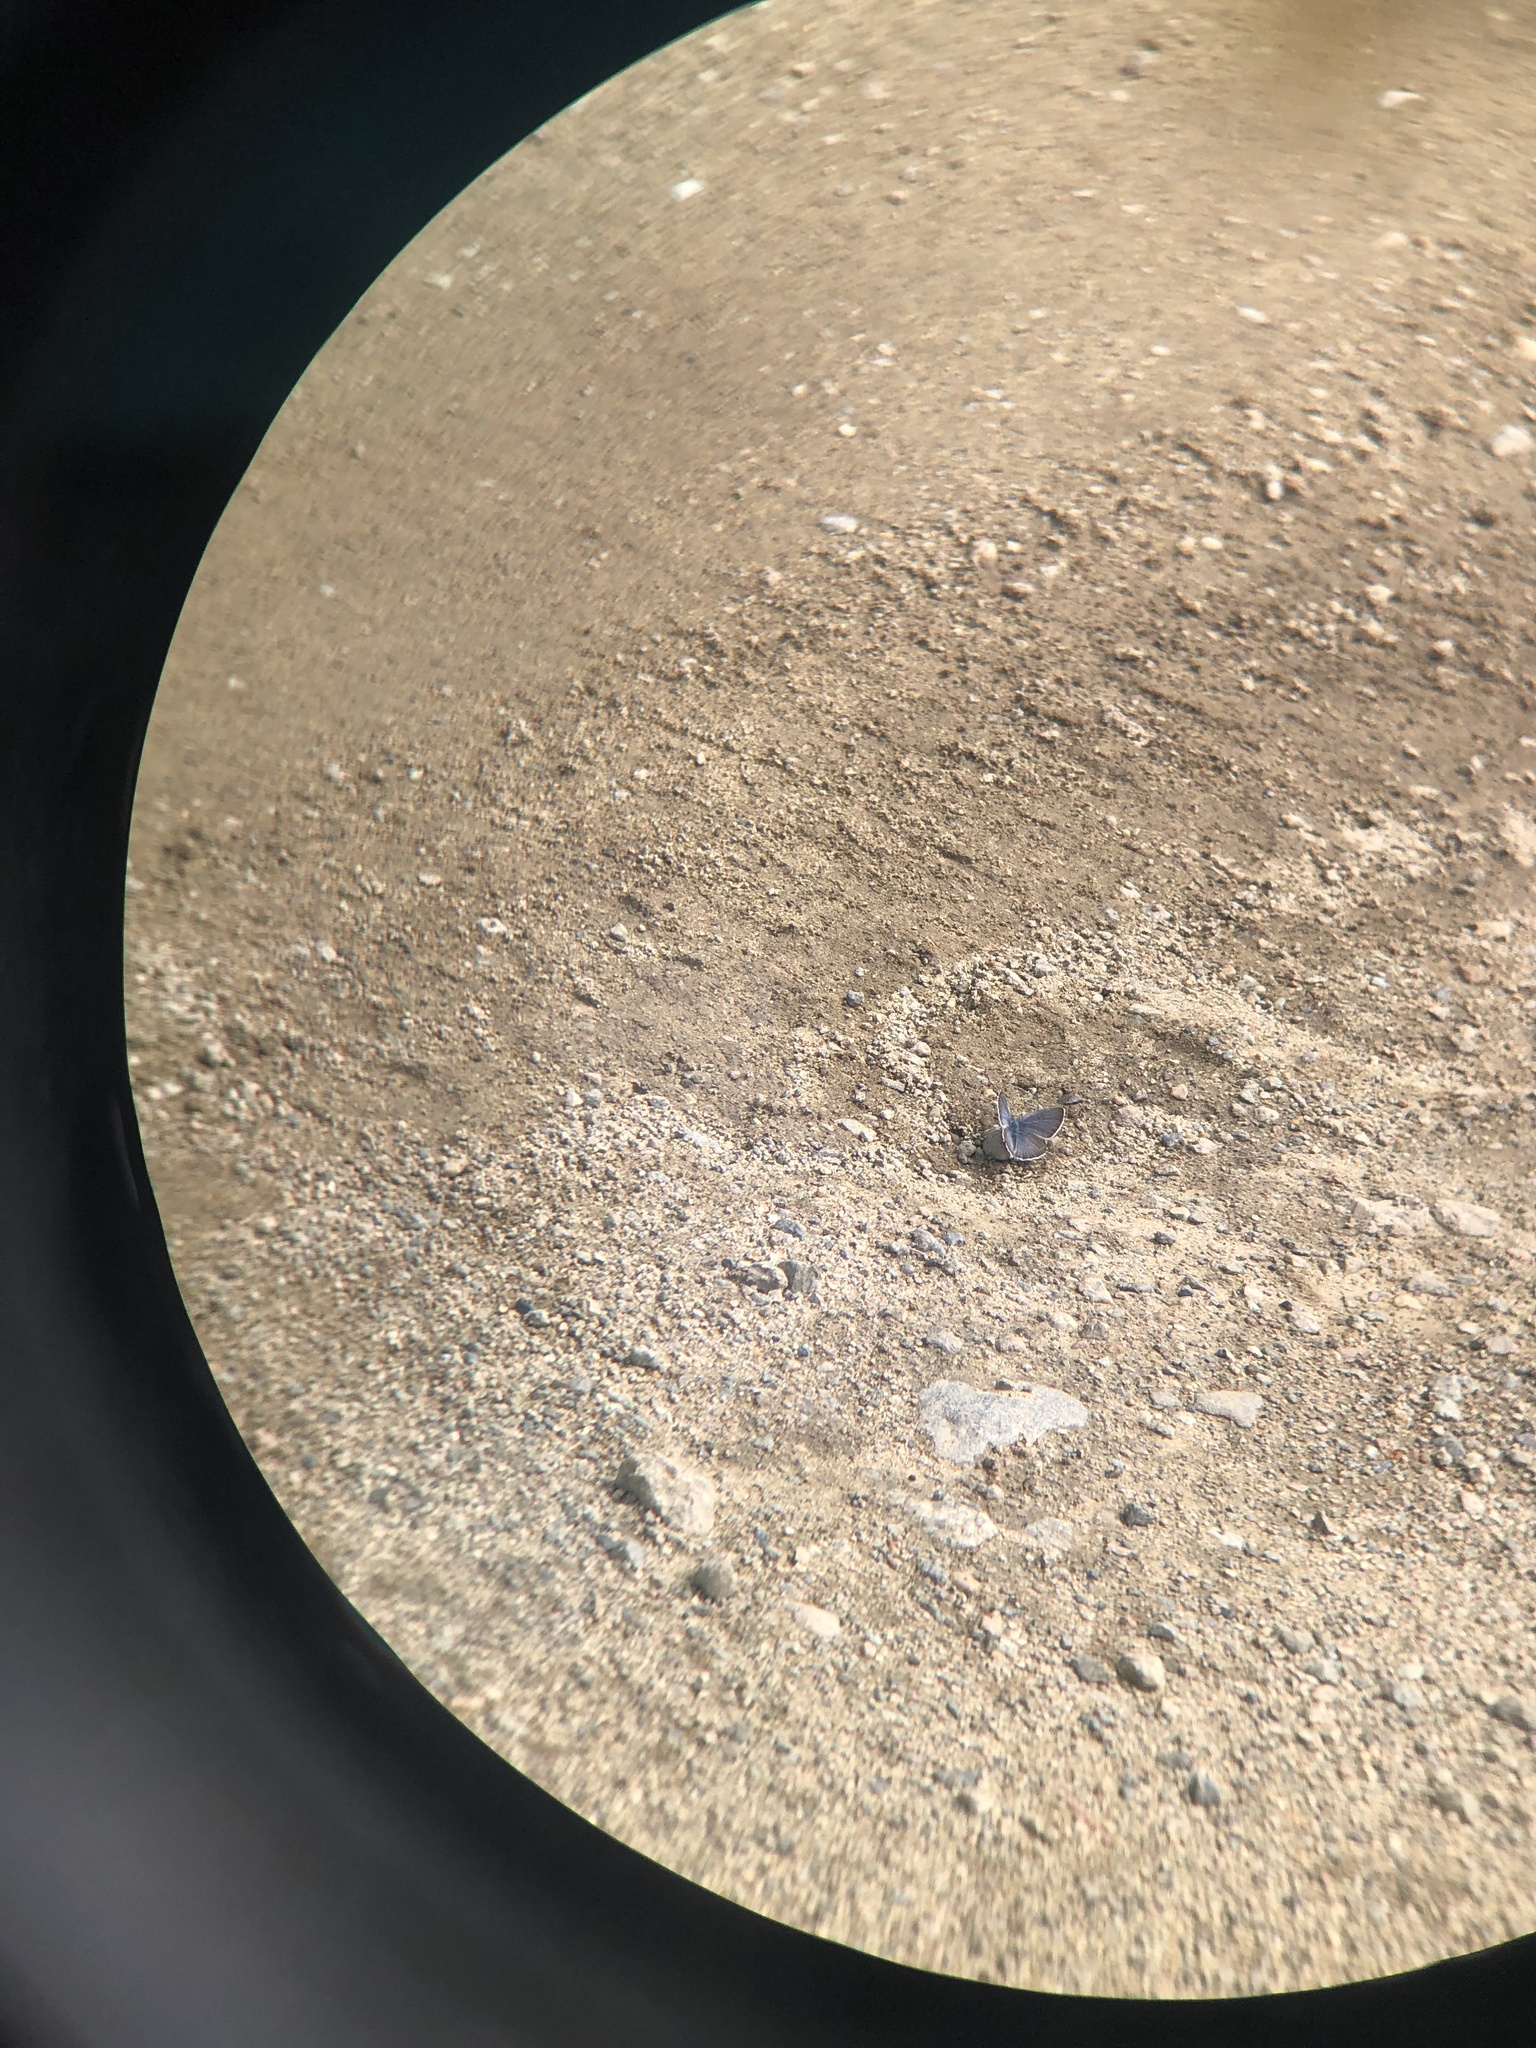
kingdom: Animalia
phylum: Arthropoda
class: Insecta
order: Lepidoptera
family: Lycaenidae
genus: Icaricia
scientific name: Icaricia icarioides
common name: Boisduval's blue
